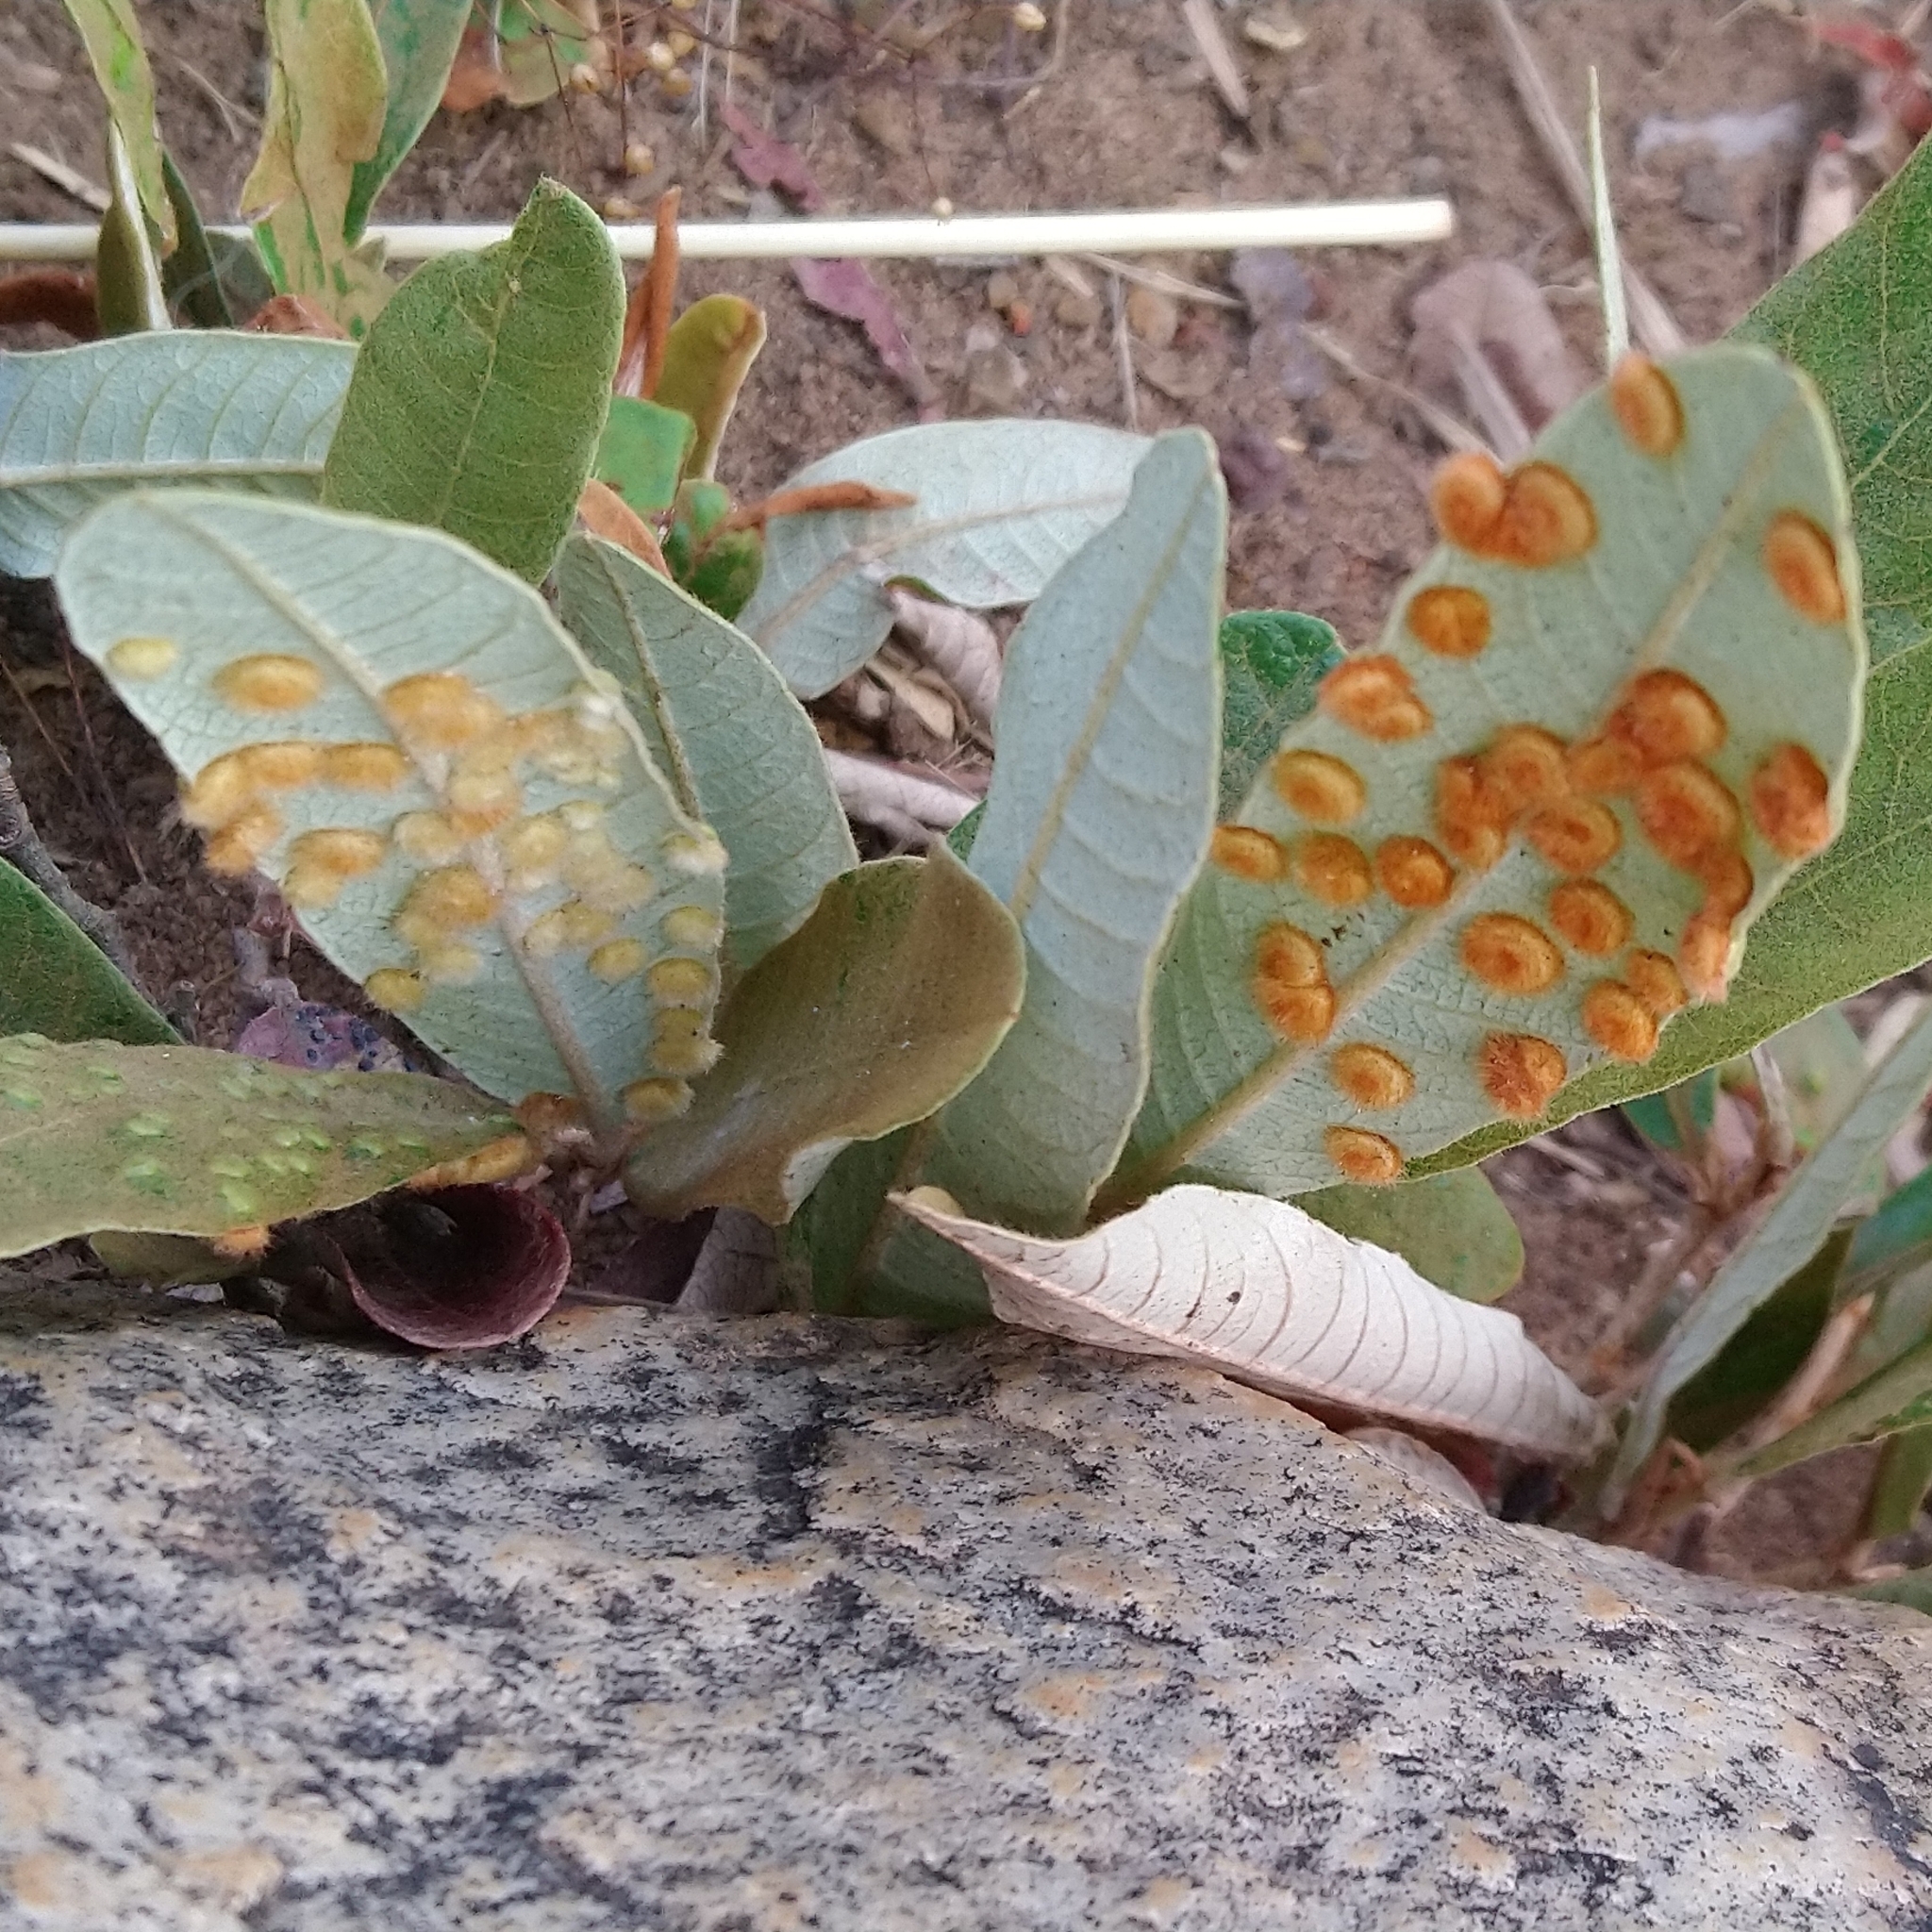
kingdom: Animalia
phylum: Arthropoda
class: Insecta
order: Diptera
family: Cecidomyiidae
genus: Lopesia
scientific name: Lopesia parimarii
